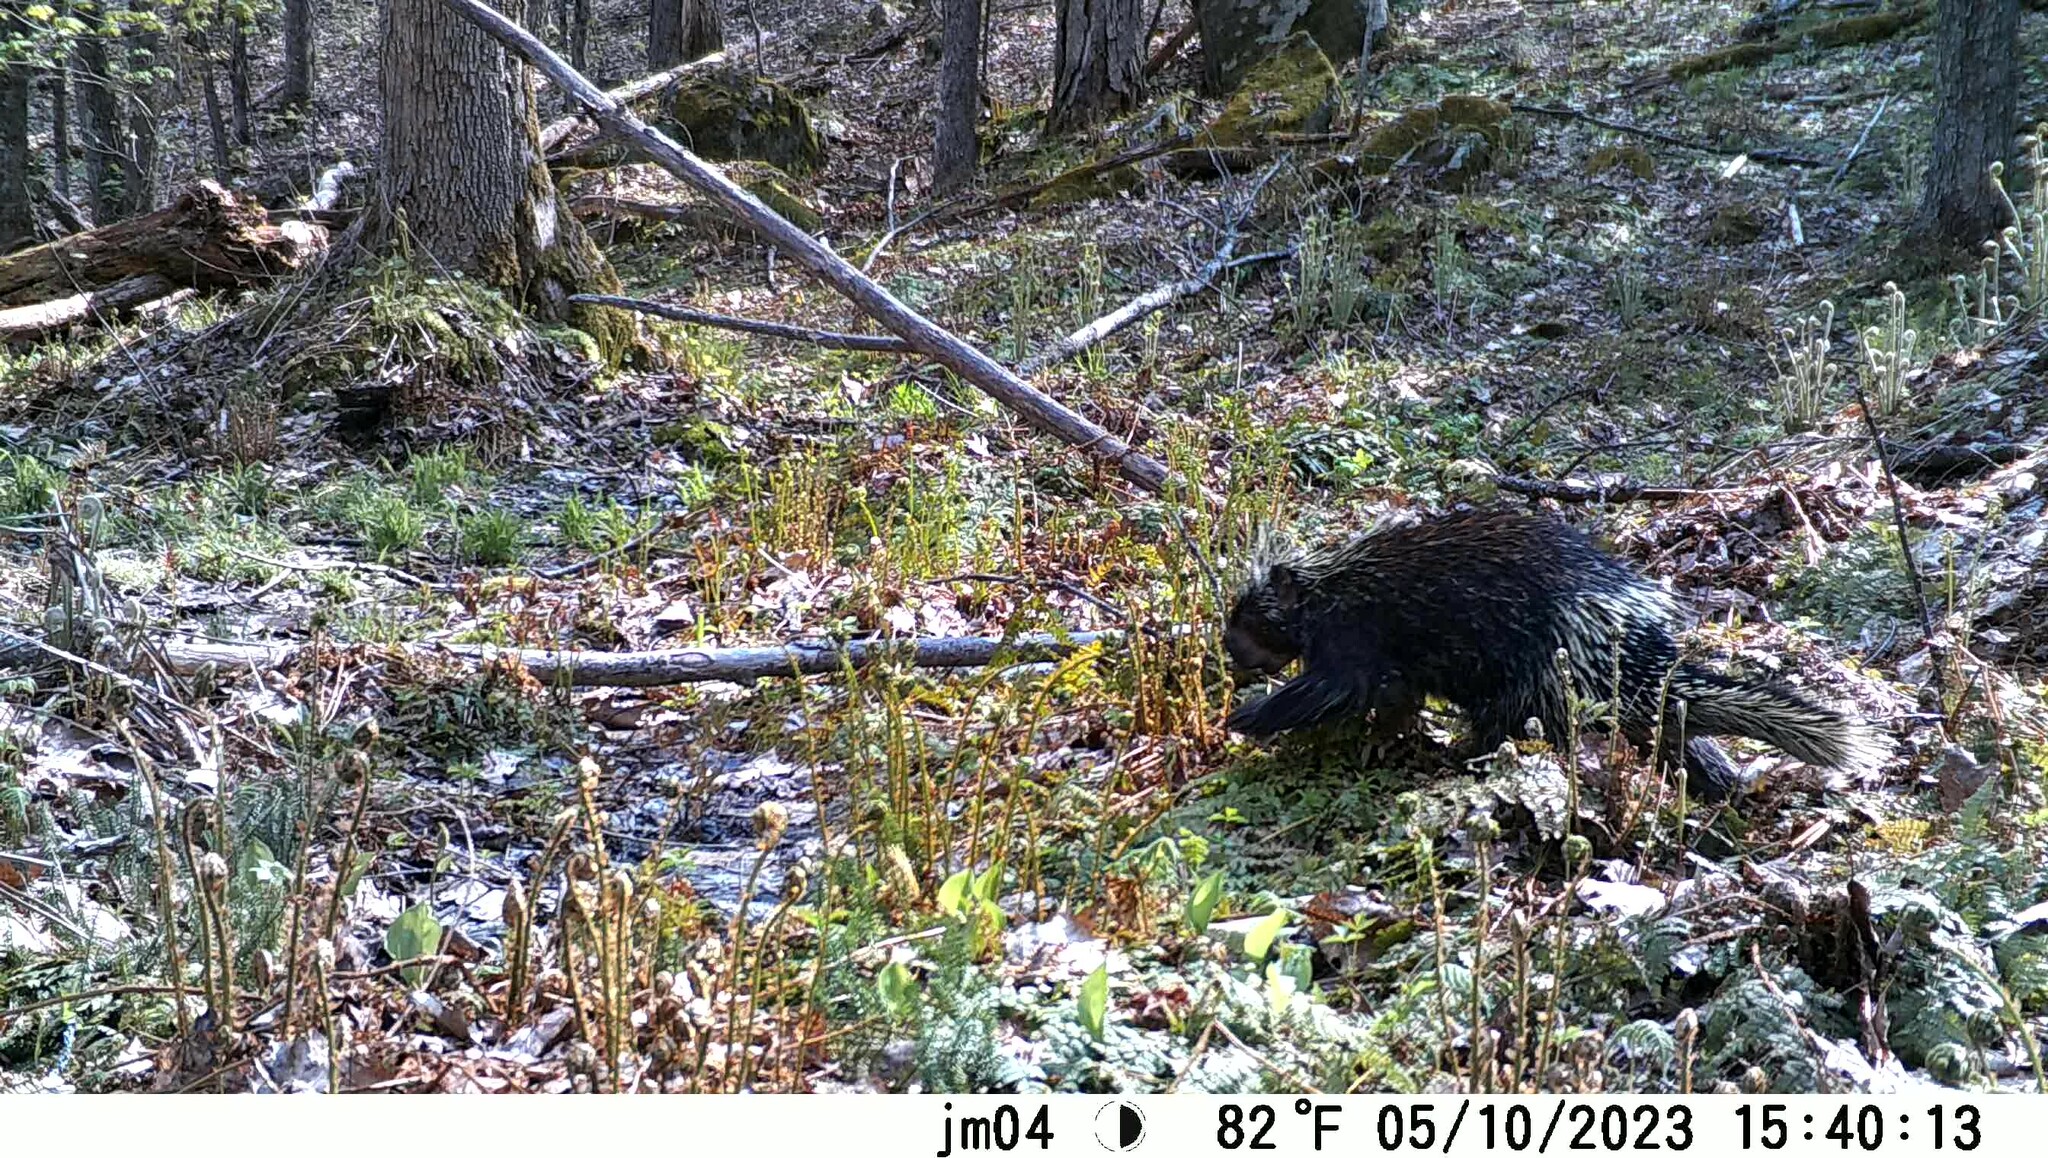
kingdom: Animalia
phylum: Chordata
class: Mammalia
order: Rodentia
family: Erethizontidae
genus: Erethizon
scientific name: Erethizon dorsatus
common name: North american porcupine
